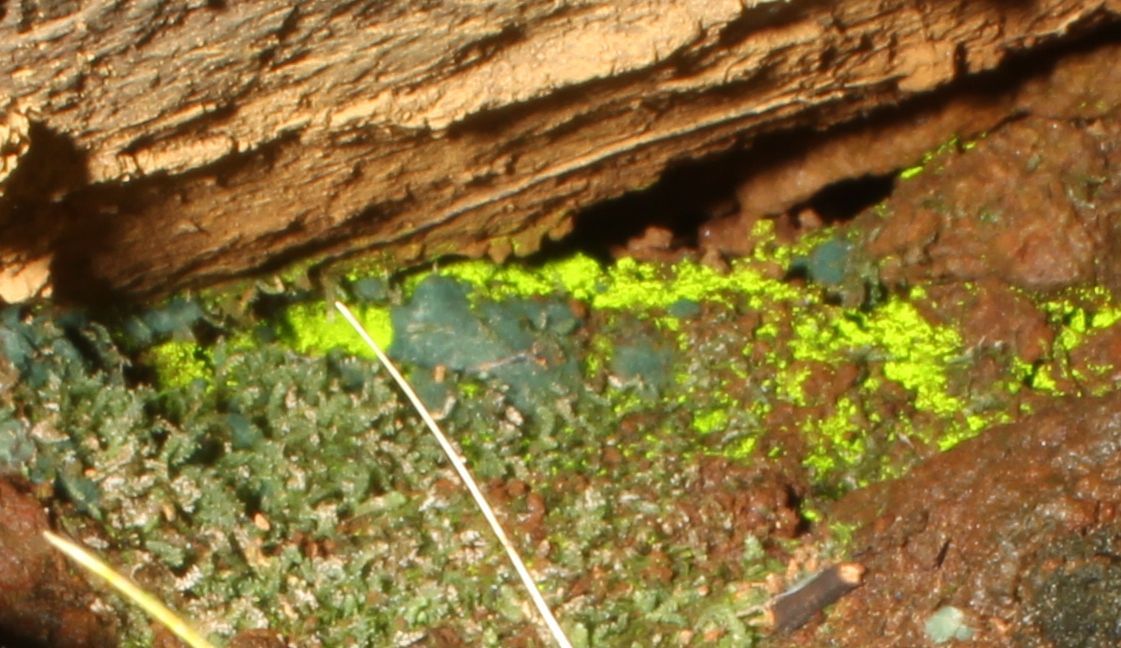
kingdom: Plantae
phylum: Bryophyta
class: Bryopsida
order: Pottiales
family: Mitteniaceae
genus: Mittenia
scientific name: Mittenia plumula
